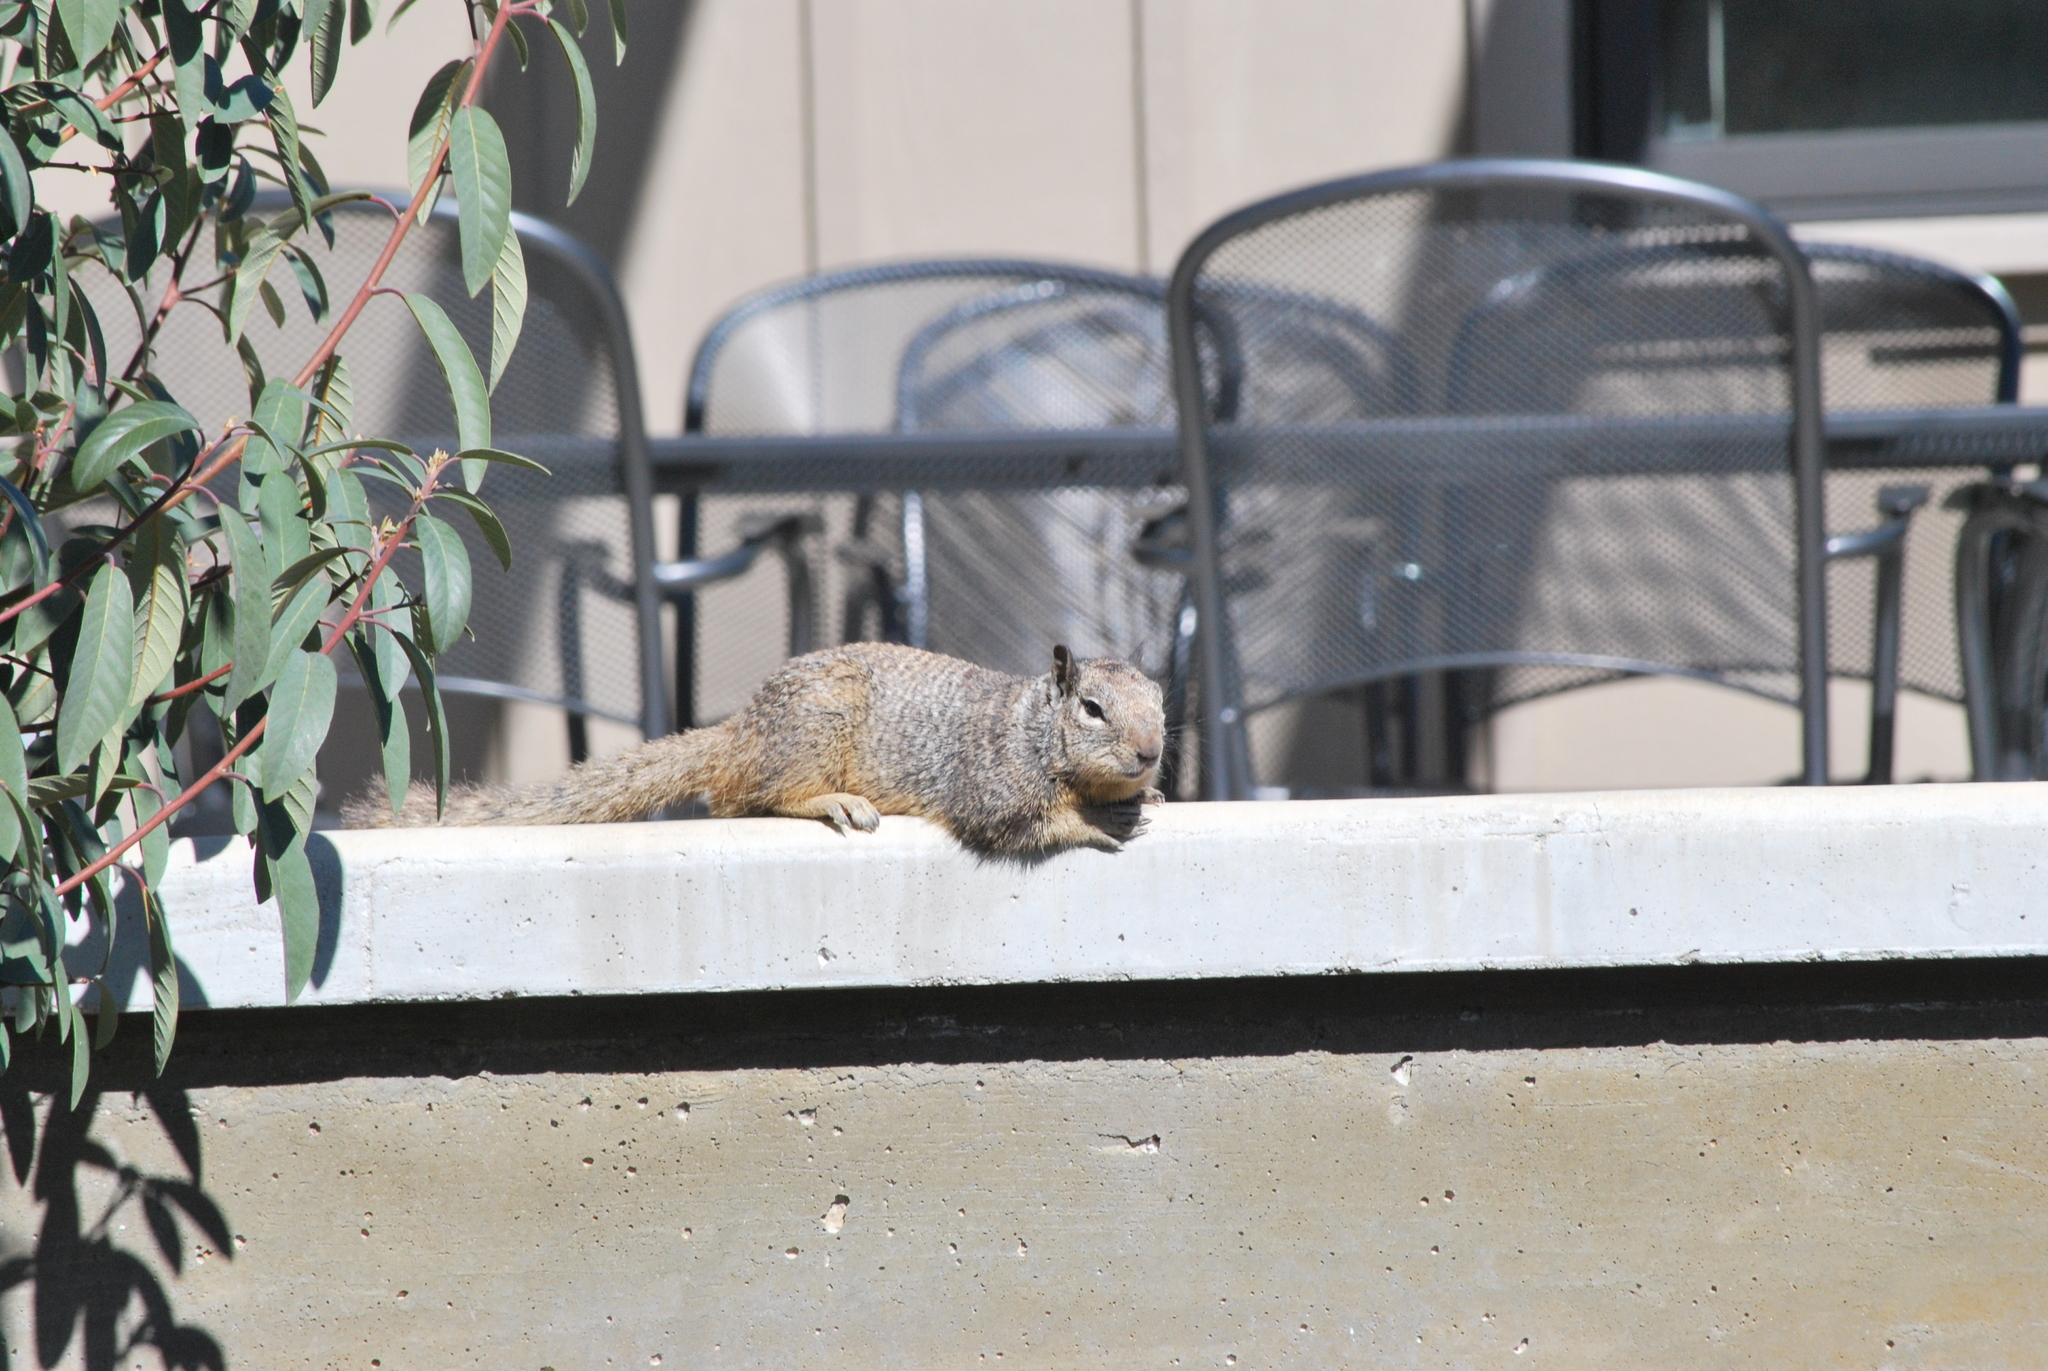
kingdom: Animalia
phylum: Chordata
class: Mammalia
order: Rodentia
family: Sciuridae
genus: Otospermophilus
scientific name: Otospermophilus beecheyi
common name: California ground squirrel
